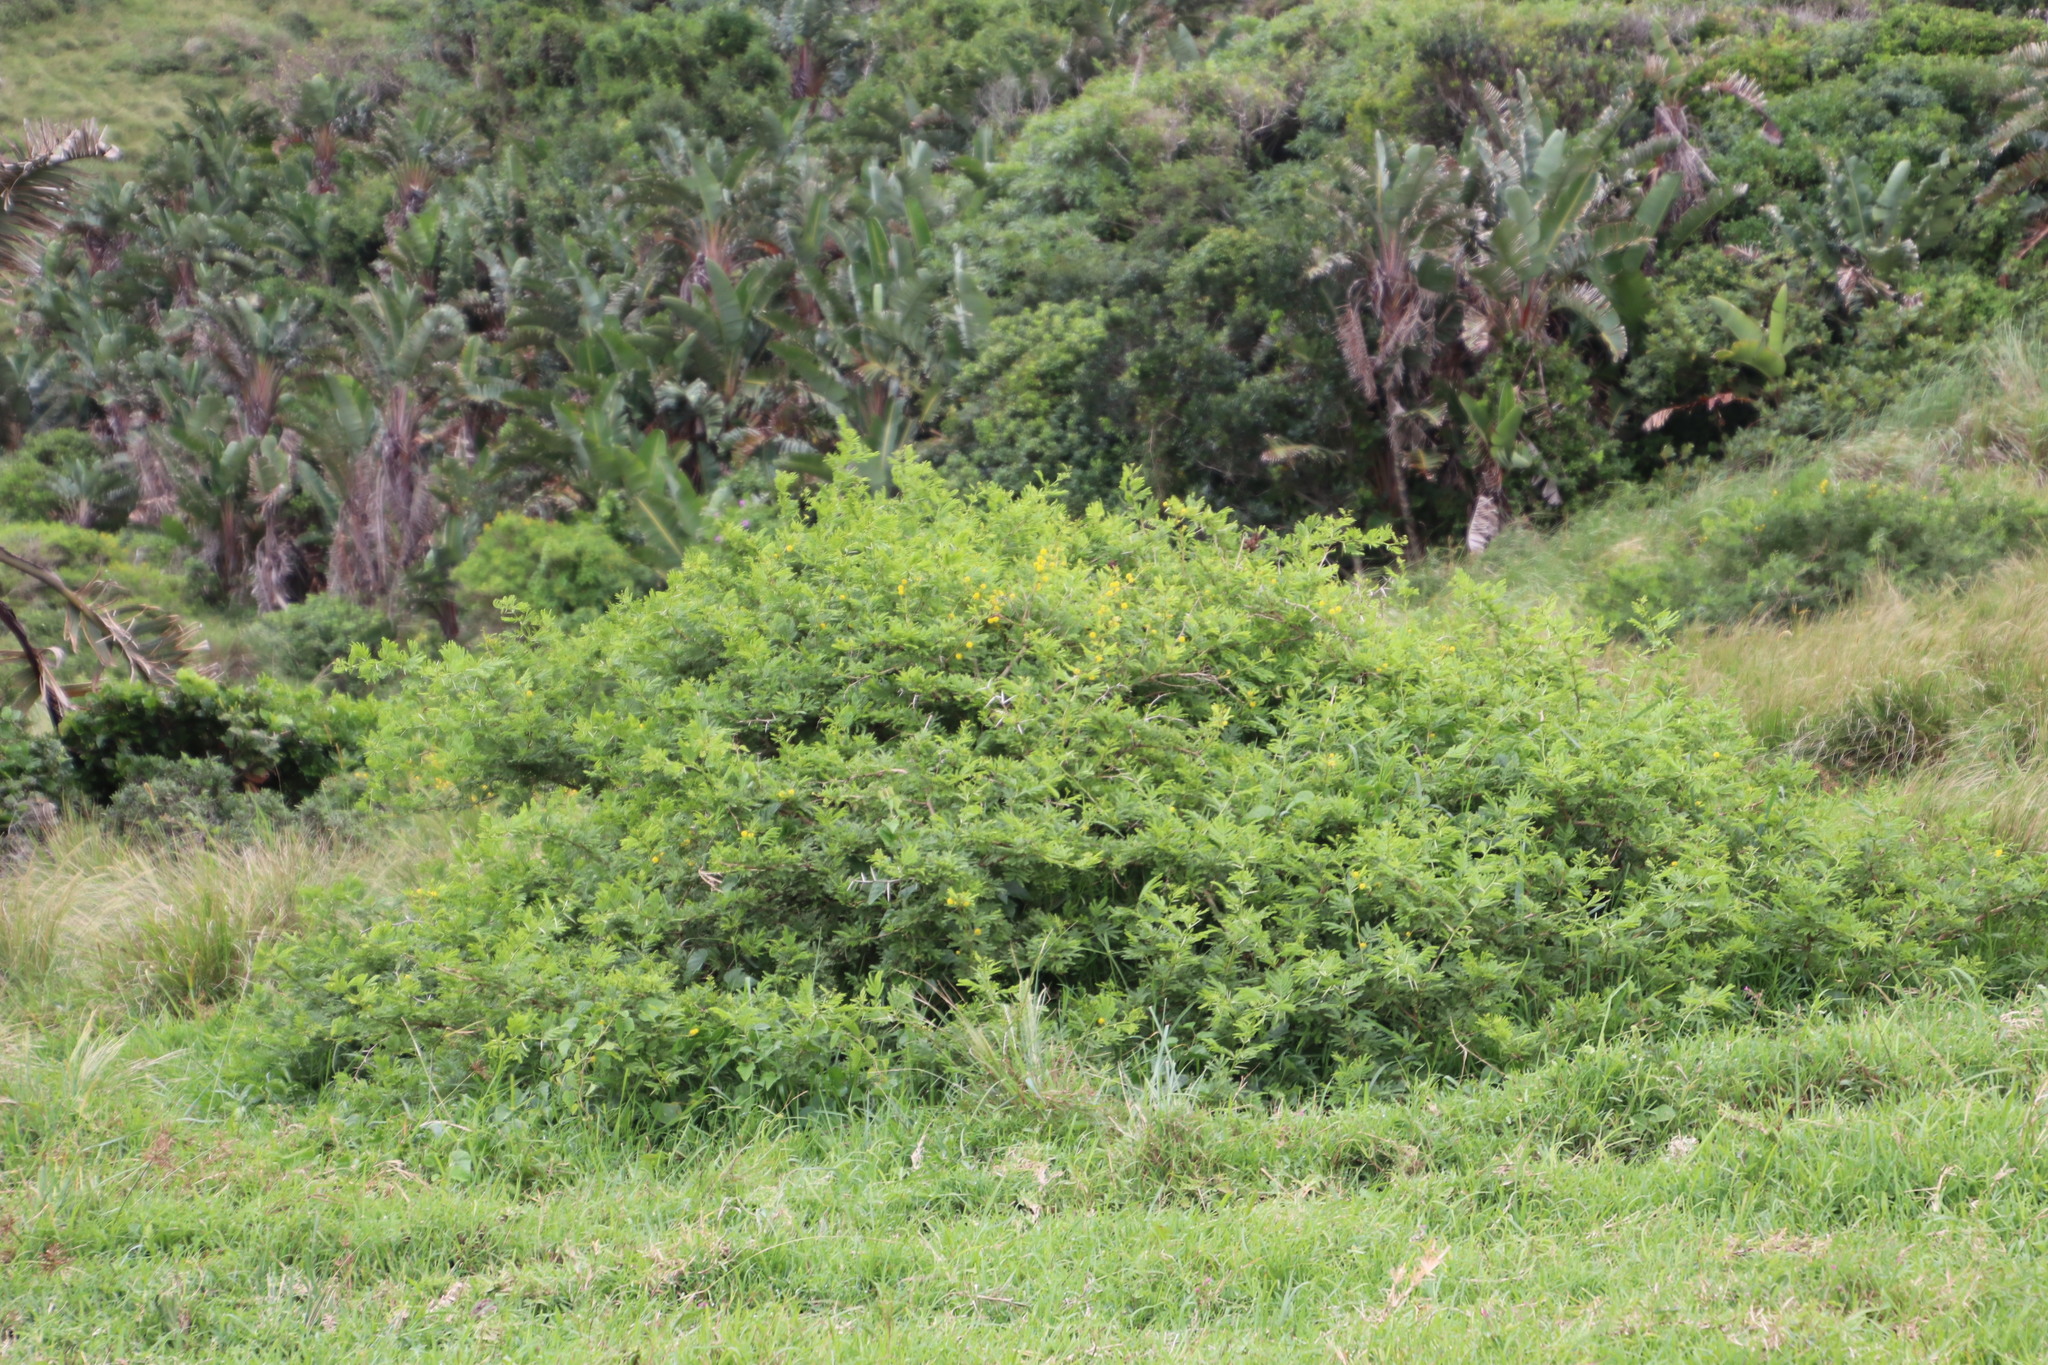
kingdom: Plantae
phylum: Tracheophyta
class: Magnoliopsida
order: Fabales
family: Fabaceae
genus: Vachellia
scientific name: Vachellia karroo
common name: Sweet thorn
